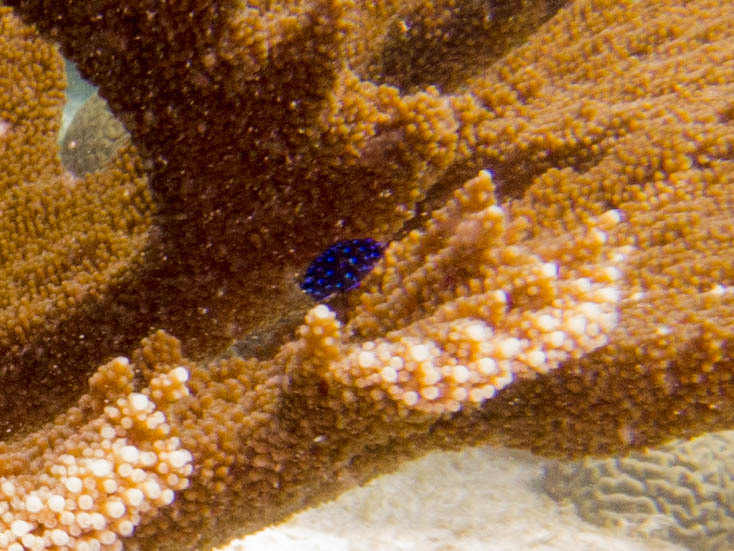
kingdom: Animalia
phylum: Chordata
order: Perciformes
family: Pomacentridae
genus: Microspathodon
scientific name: Microspathodon chrysurus
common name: Yellowtail damselfish
